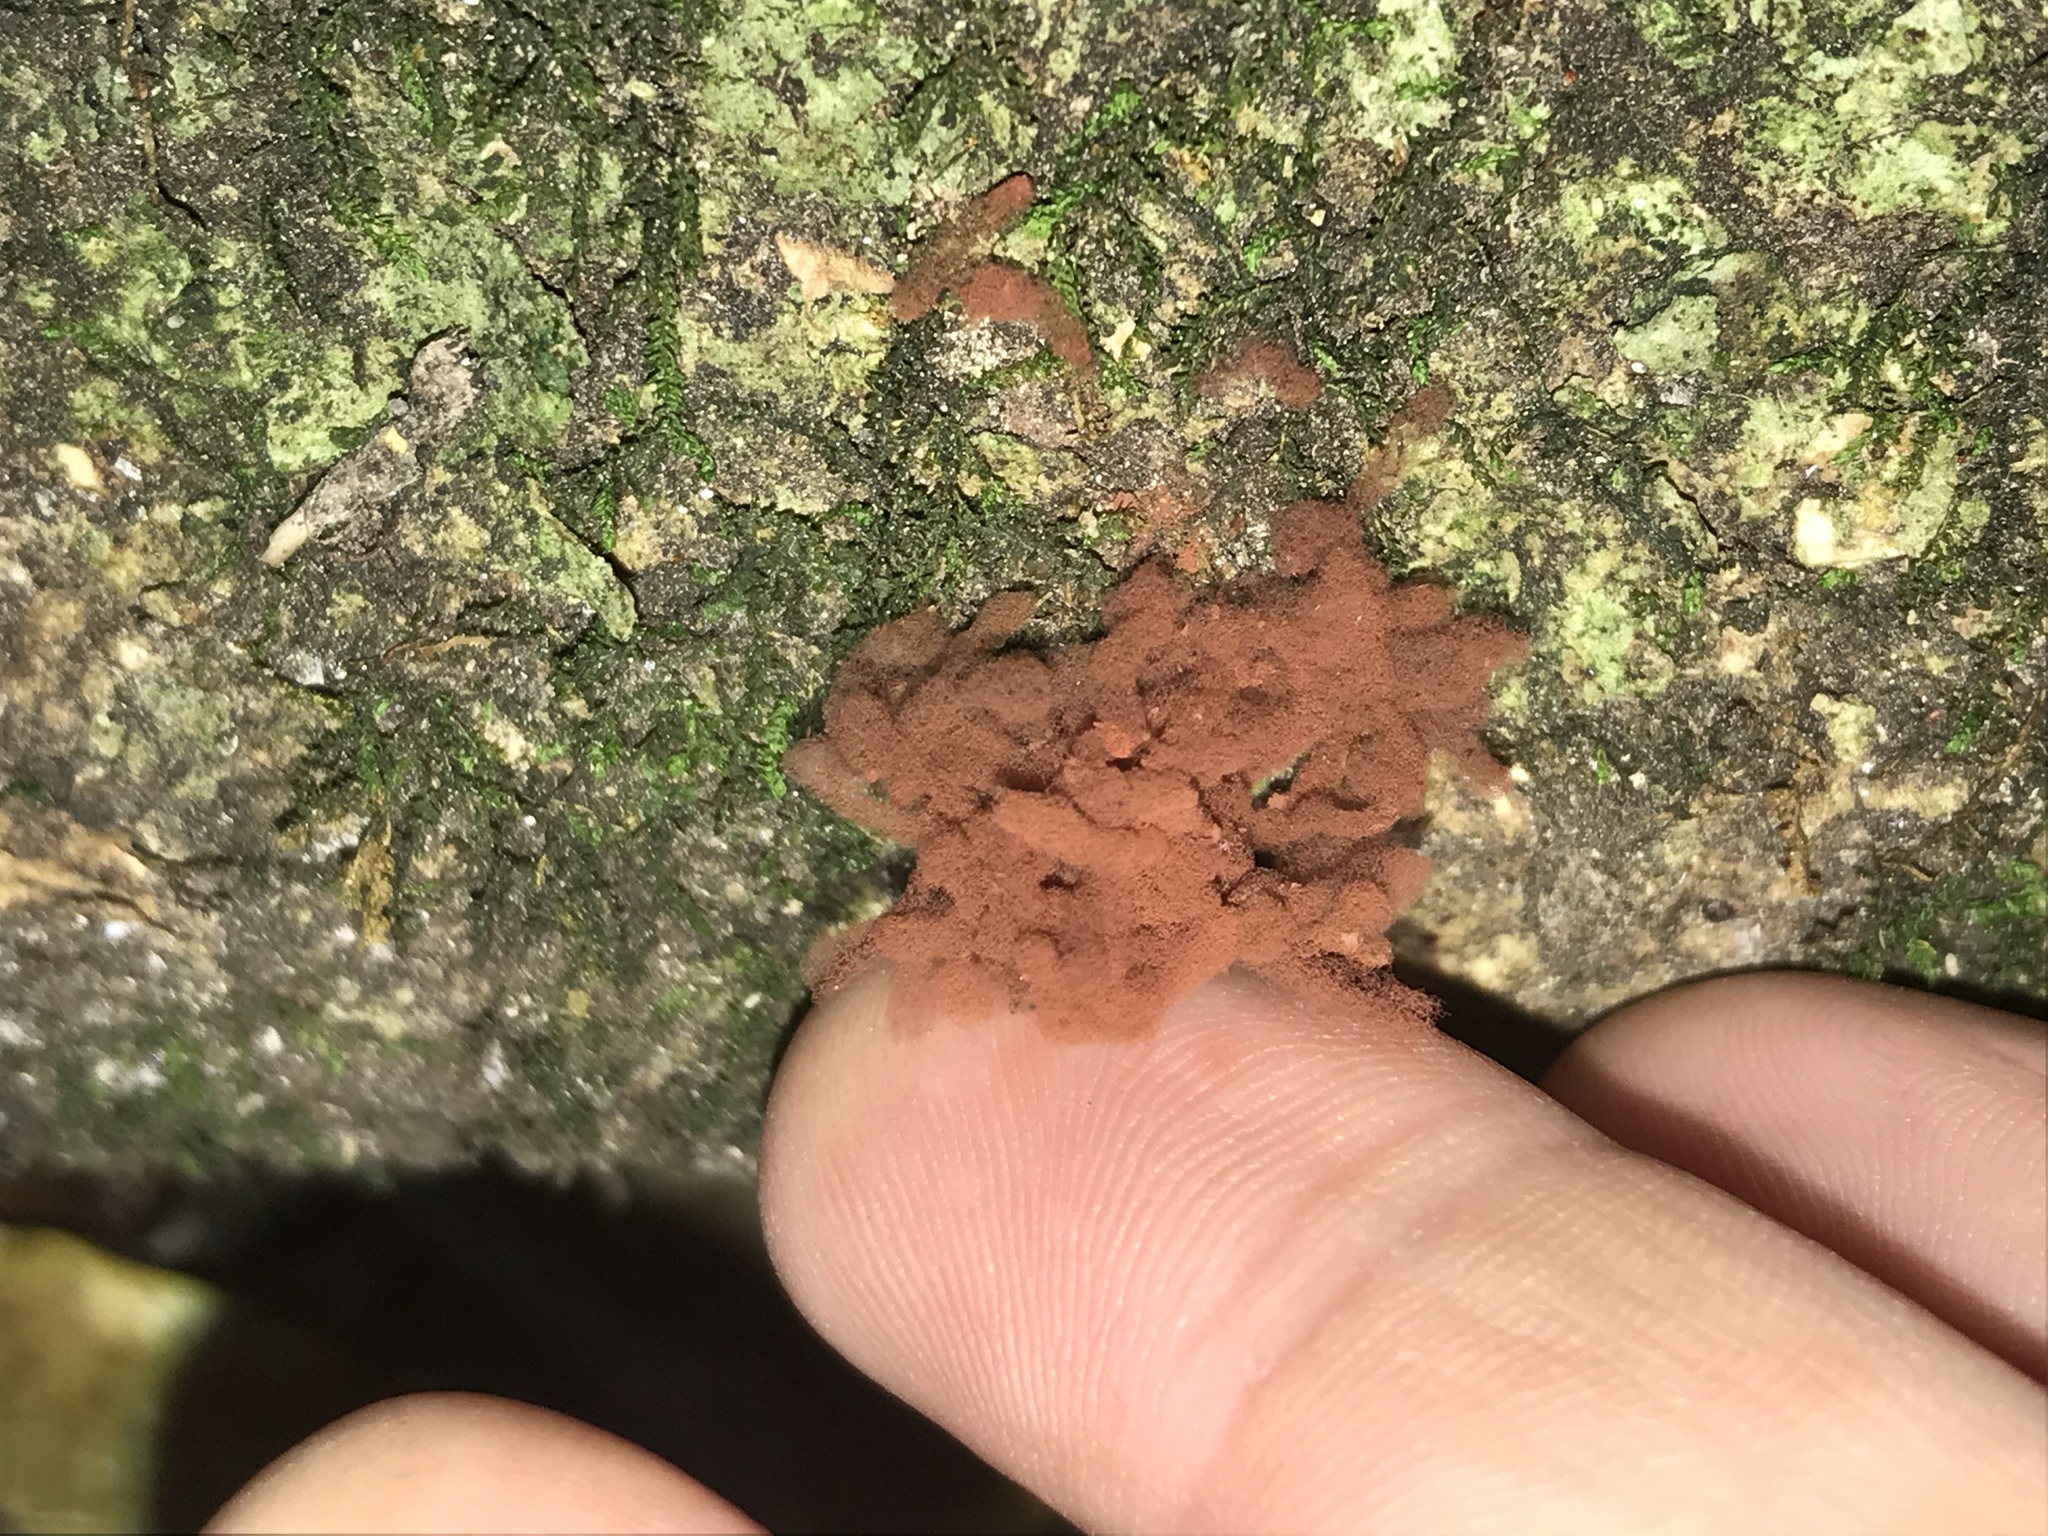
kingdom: Protozoa
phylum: Mycetozoa
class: Myxomycetes
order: Trichiales
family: Arcyriaceae
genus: Arcyria
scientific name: Arcyria denudata
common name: Carnival candy slime mold
